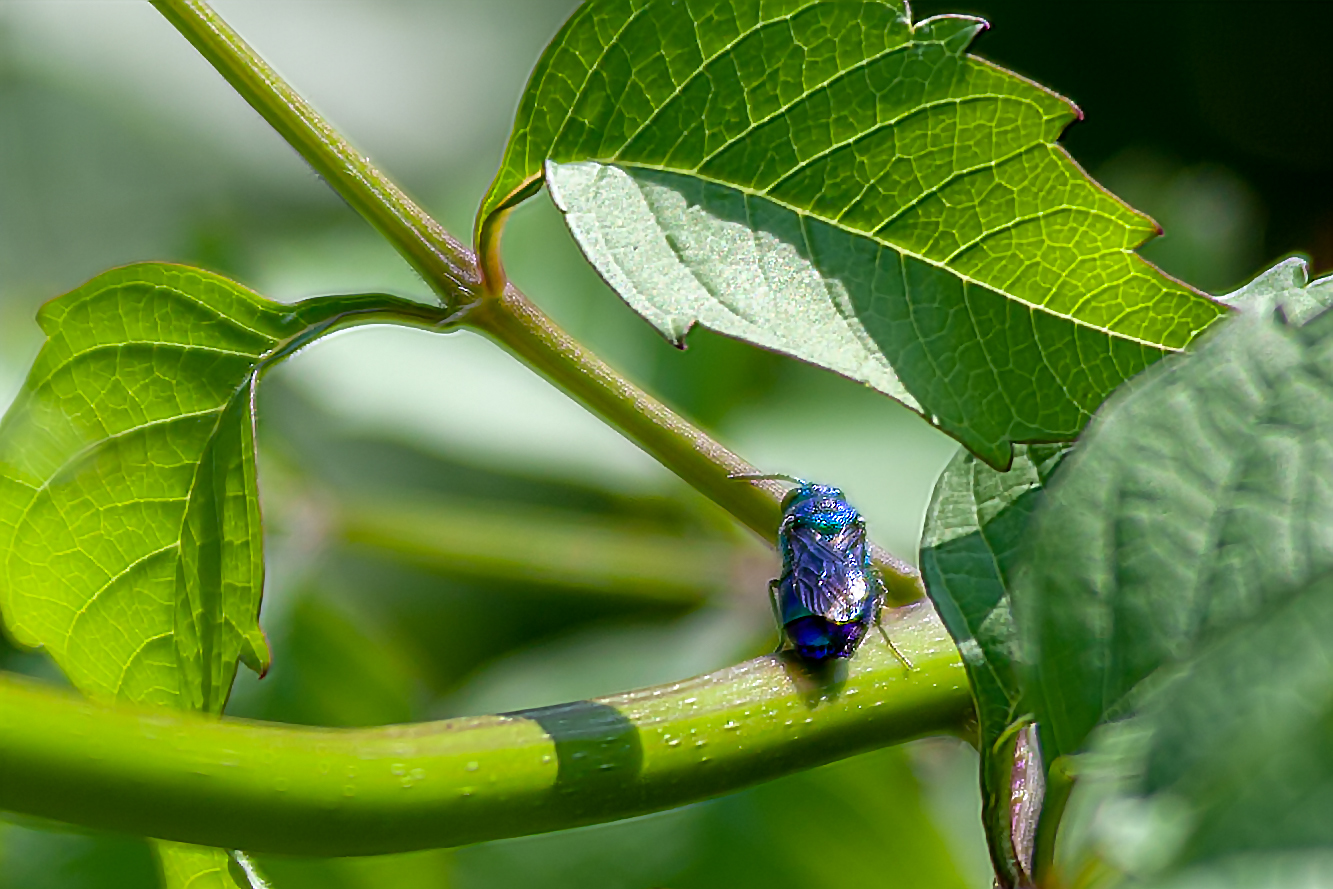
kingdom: Animalia
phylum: Arthropoda
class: Insecta
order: Hymenoptera
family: Chrysididae
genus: Chrysis
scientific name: Chrysis angolensis
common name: Cuckoo wasp
